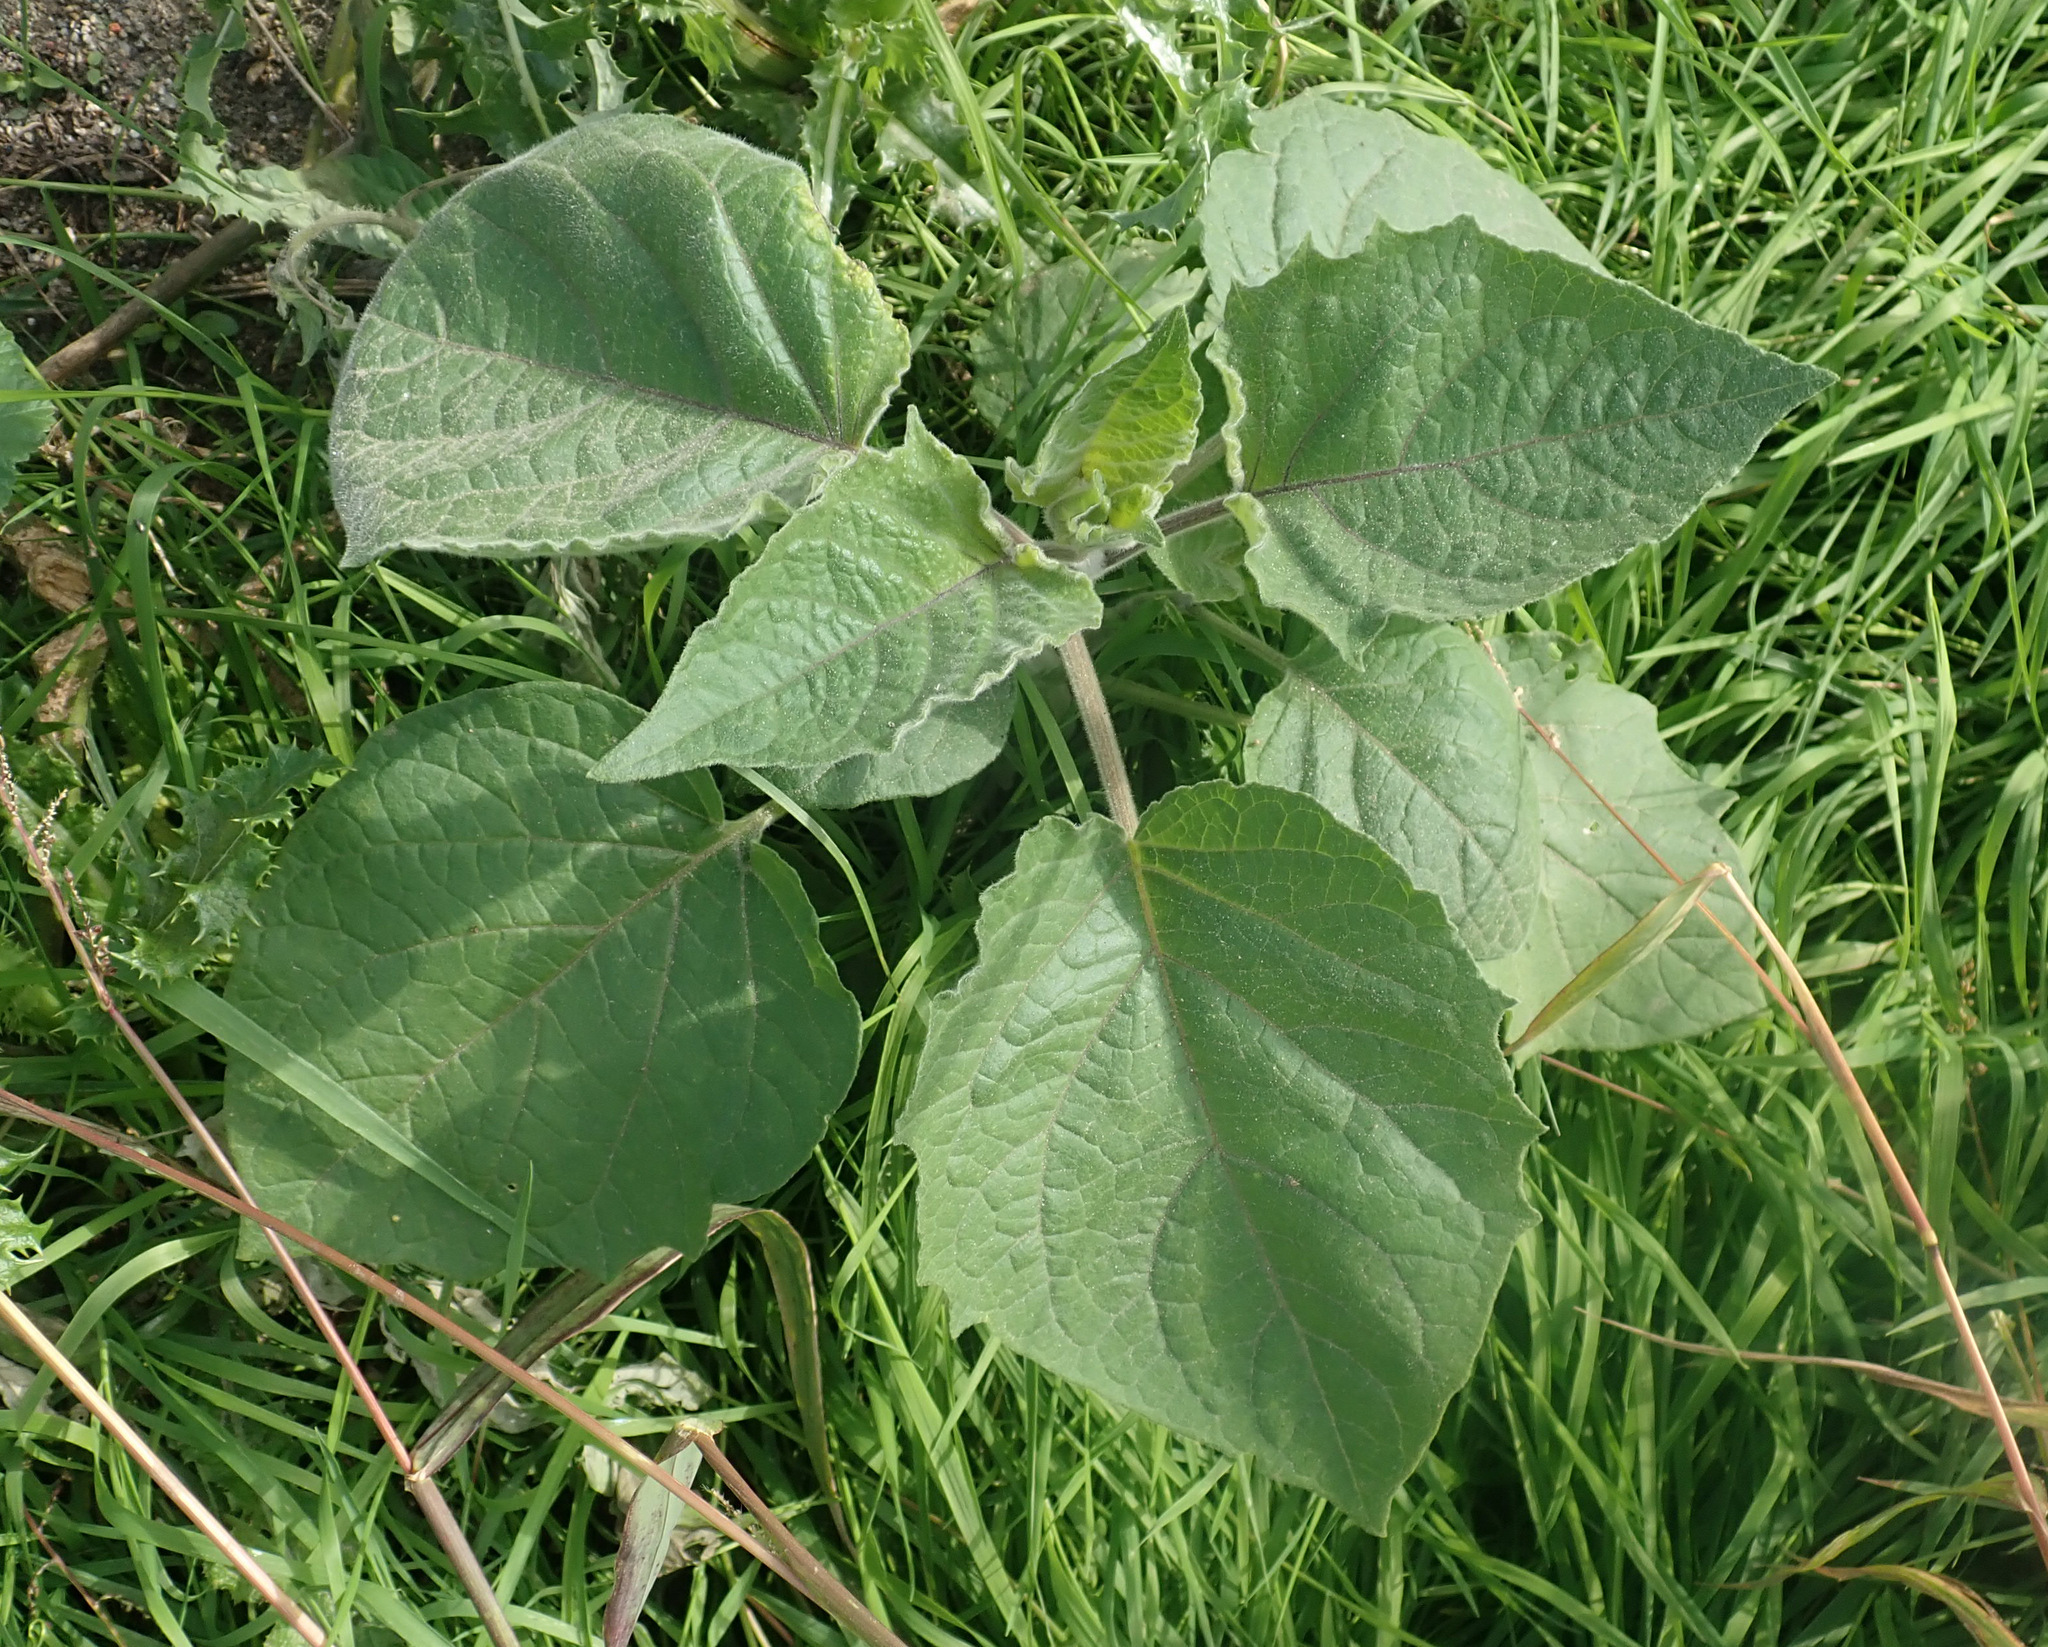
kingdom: Plantae
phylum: Tracheophyta
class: Magnoliopsida
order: Solanales
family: Solanaceae
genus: Physalis
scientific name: Physalis peruviana
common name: Cape-gooseberry
